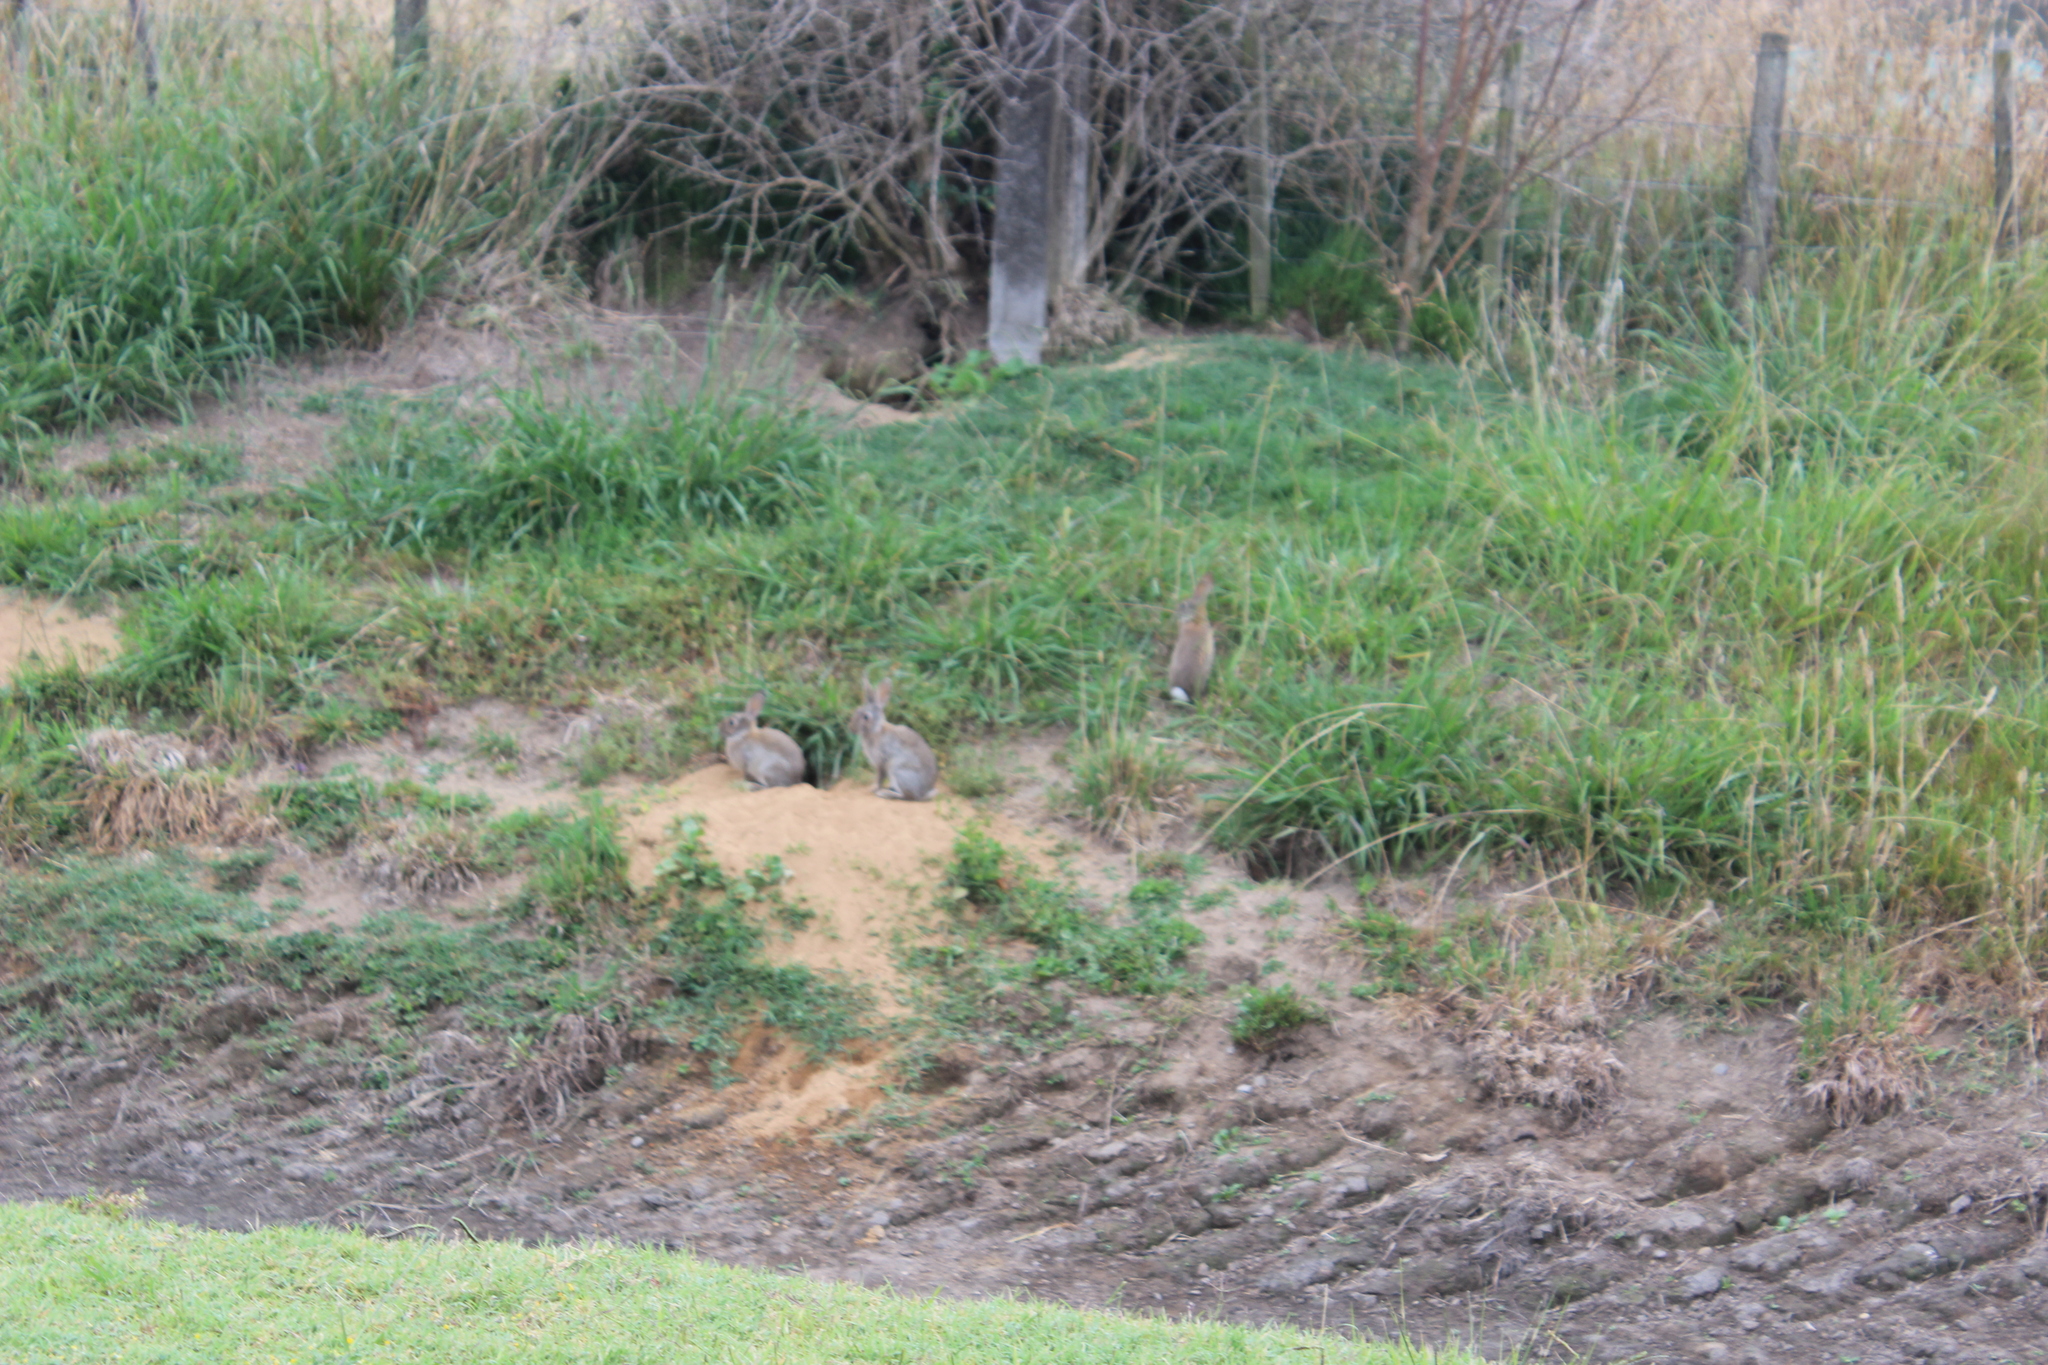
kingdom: Animalia
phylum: Chordata
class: Mammalia
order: Lagomorpha
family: Leporidae
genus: Oryctolagus
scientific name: Oryctolagus cuniculus
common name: European rabbit
